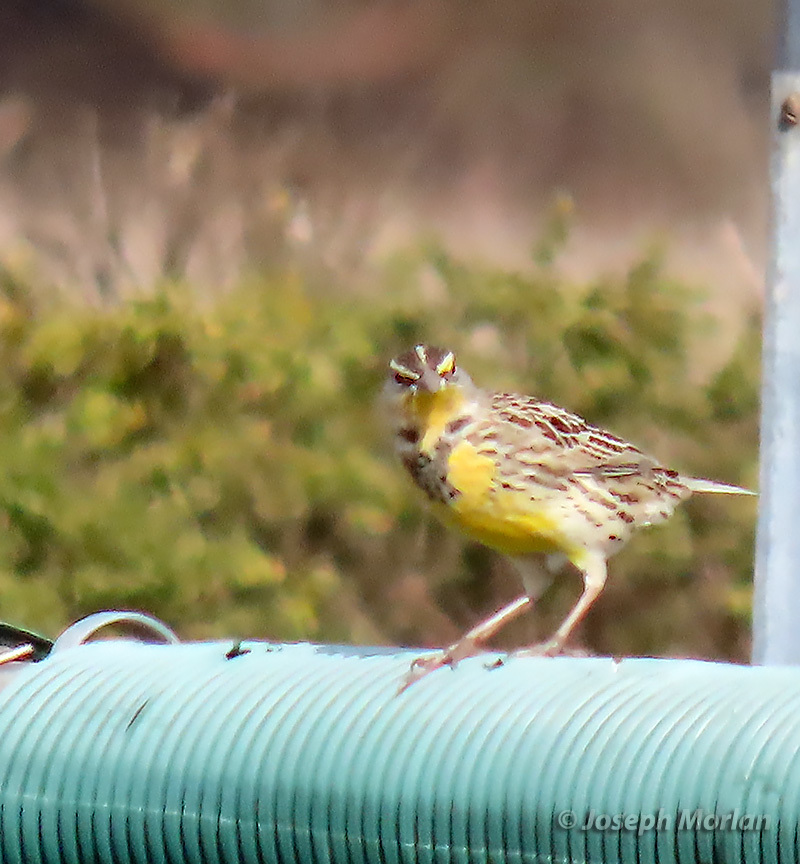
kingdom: Animalia
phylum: Chordata
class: Aves
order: Passeriformes
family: Icteridae
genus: Sturnella
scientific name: Sturnella neglecta
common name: Western meadowlark
